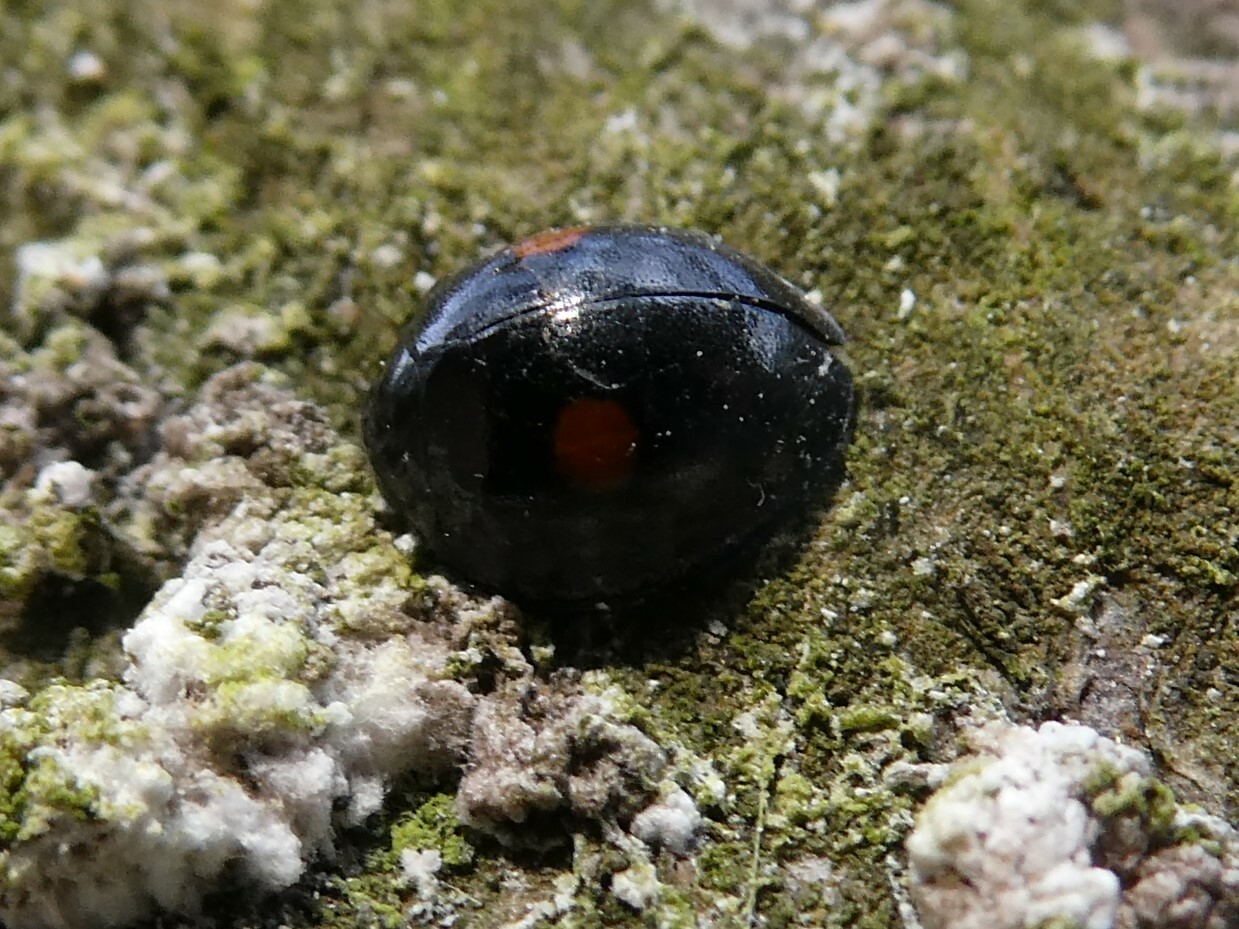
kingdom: Animalia
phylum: Arthropoda
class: Insecta
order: Coleoptera
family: Coccinellidae
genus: Chilocorus
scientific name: Chilocorus stigma
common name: Twicestabbed lady beetle
